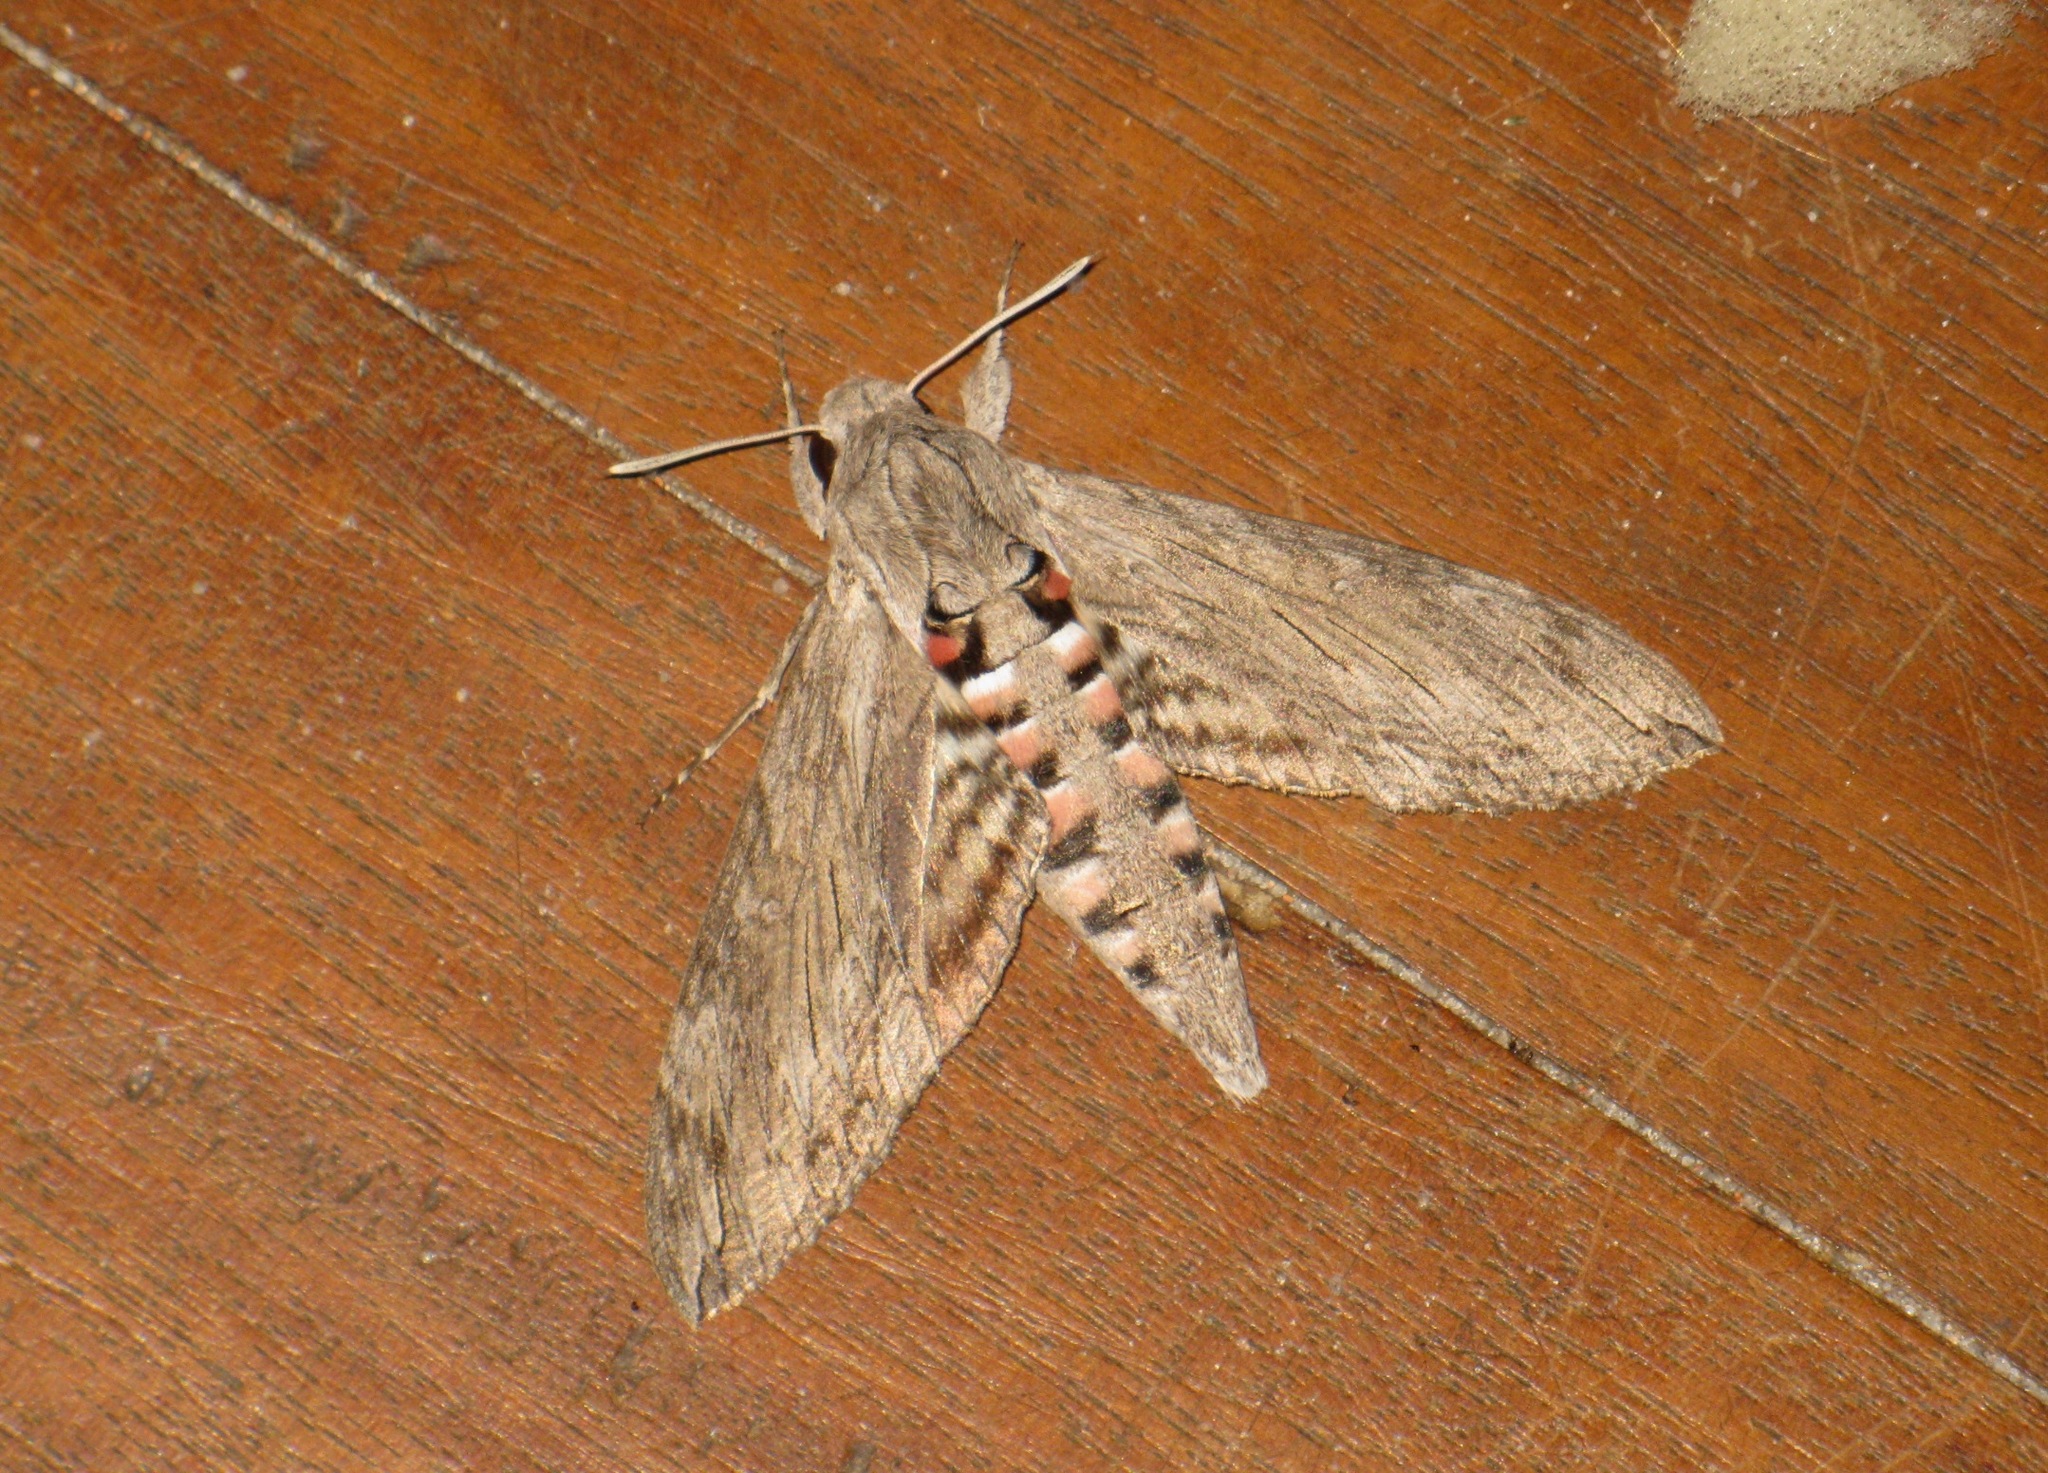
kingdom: Animalia
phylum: Arthropoda
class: Insecta
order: Lepidoptera
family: Sphingidae
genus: Agrius
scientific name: Agrius convolvuli
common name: Convolvulus hawkmoth
